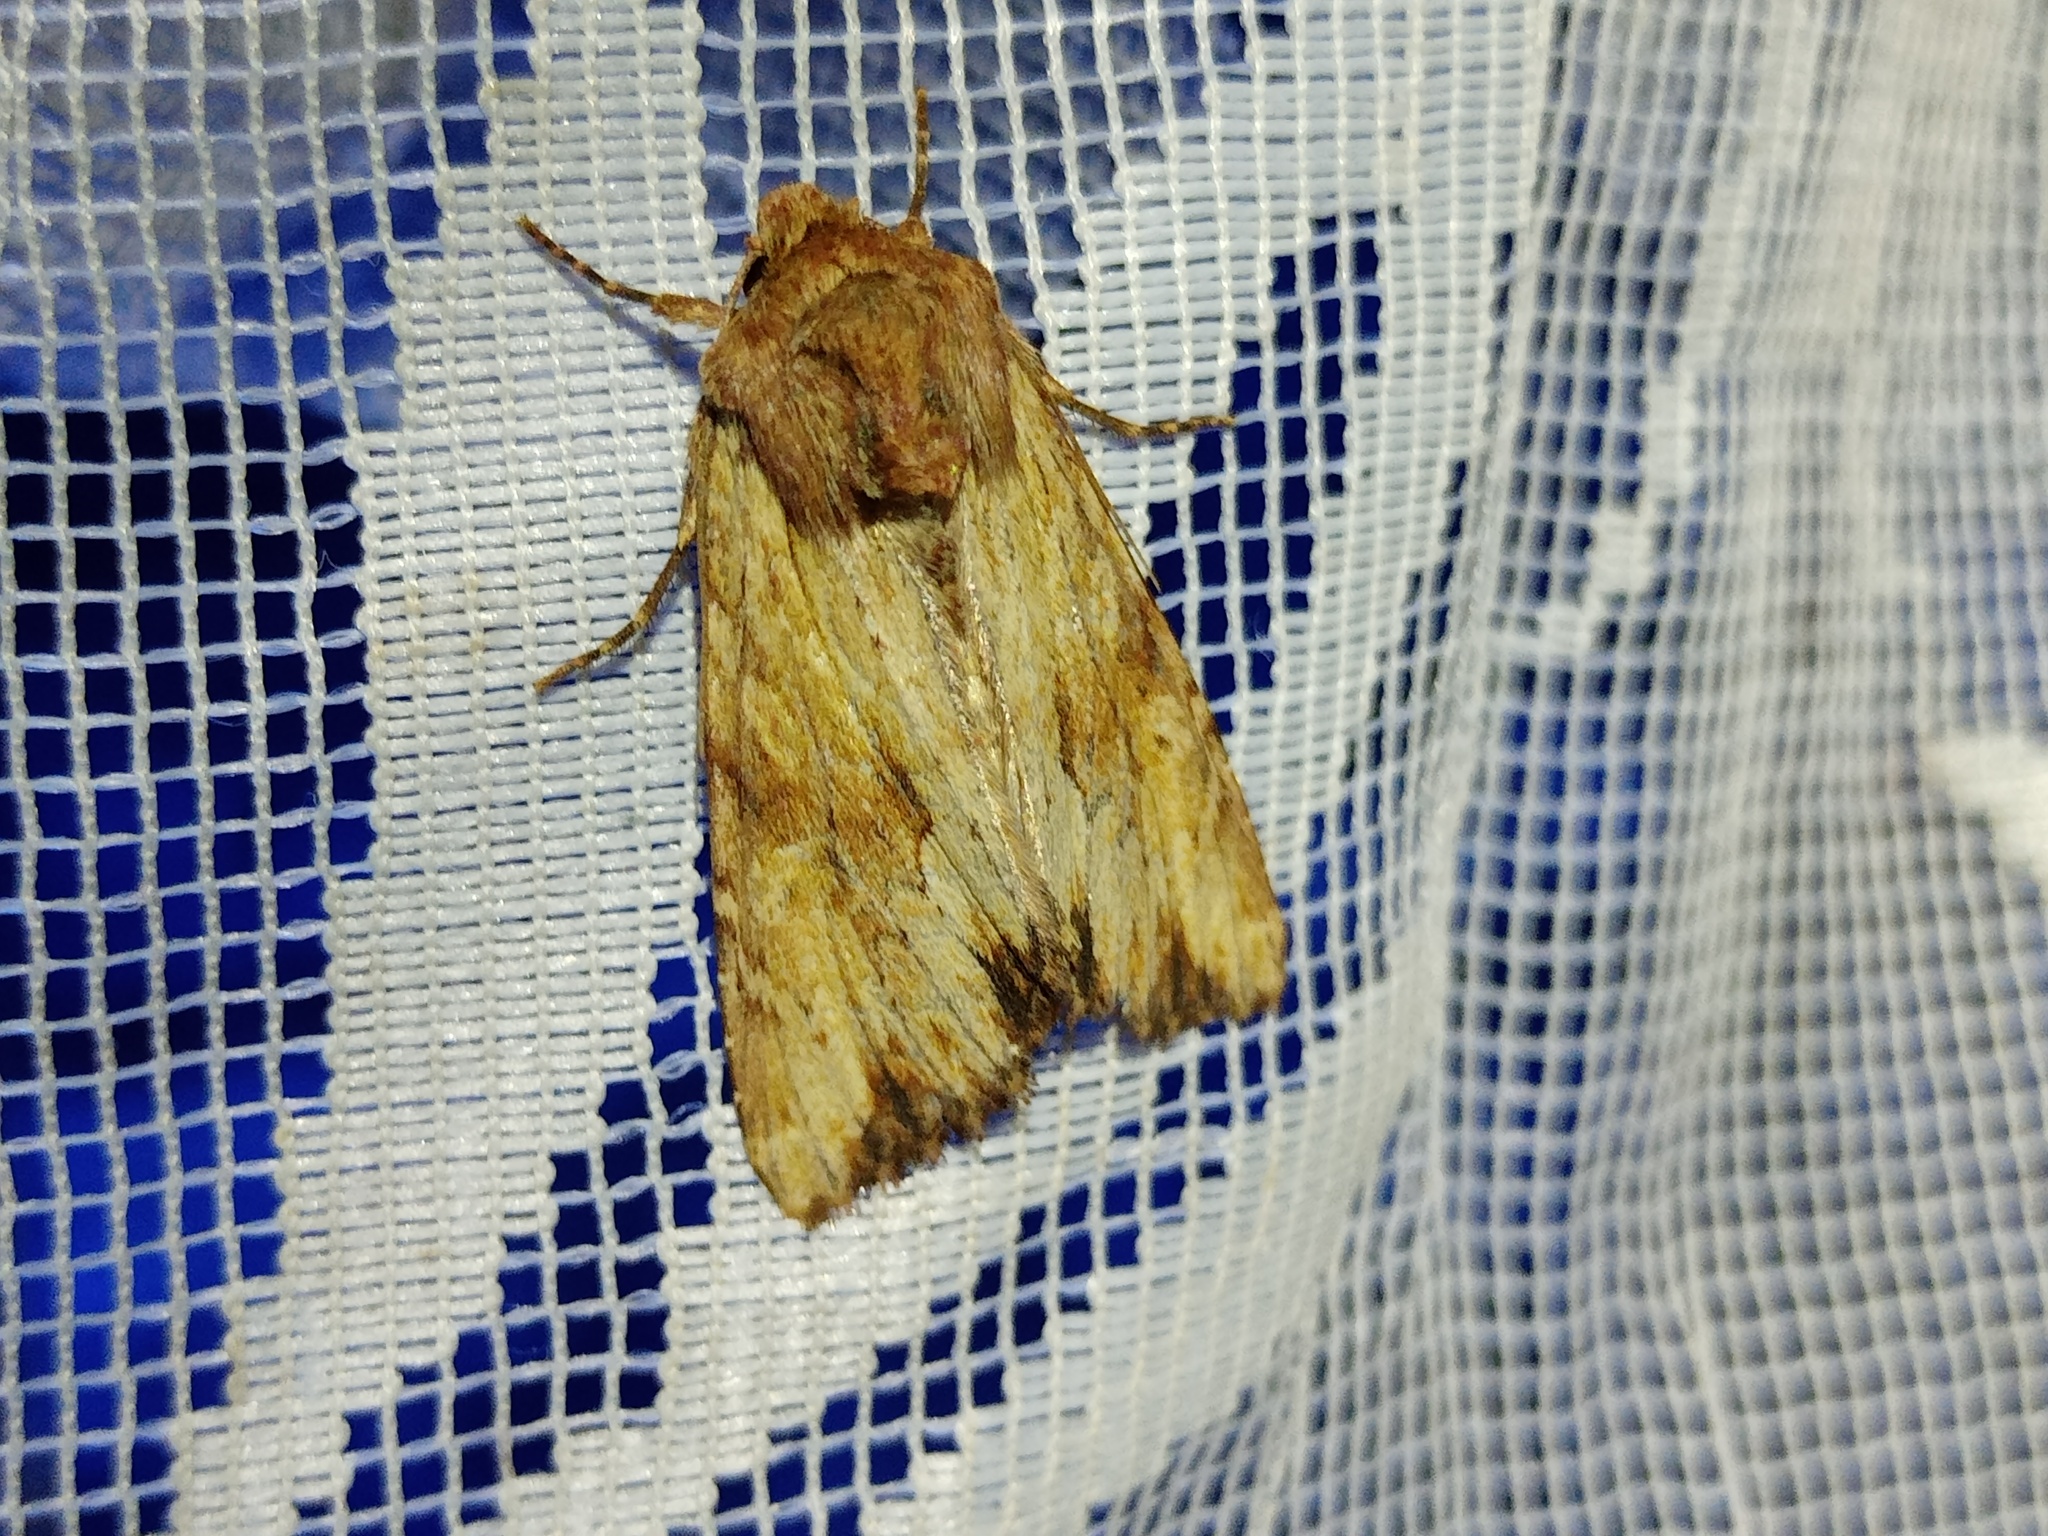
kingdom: Animalia
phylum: Arthropoda
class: Insecta
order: Lepidoptera
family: Noctuidae
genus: Apamea
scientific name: Apamea sublustris
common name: Reddish light arches
